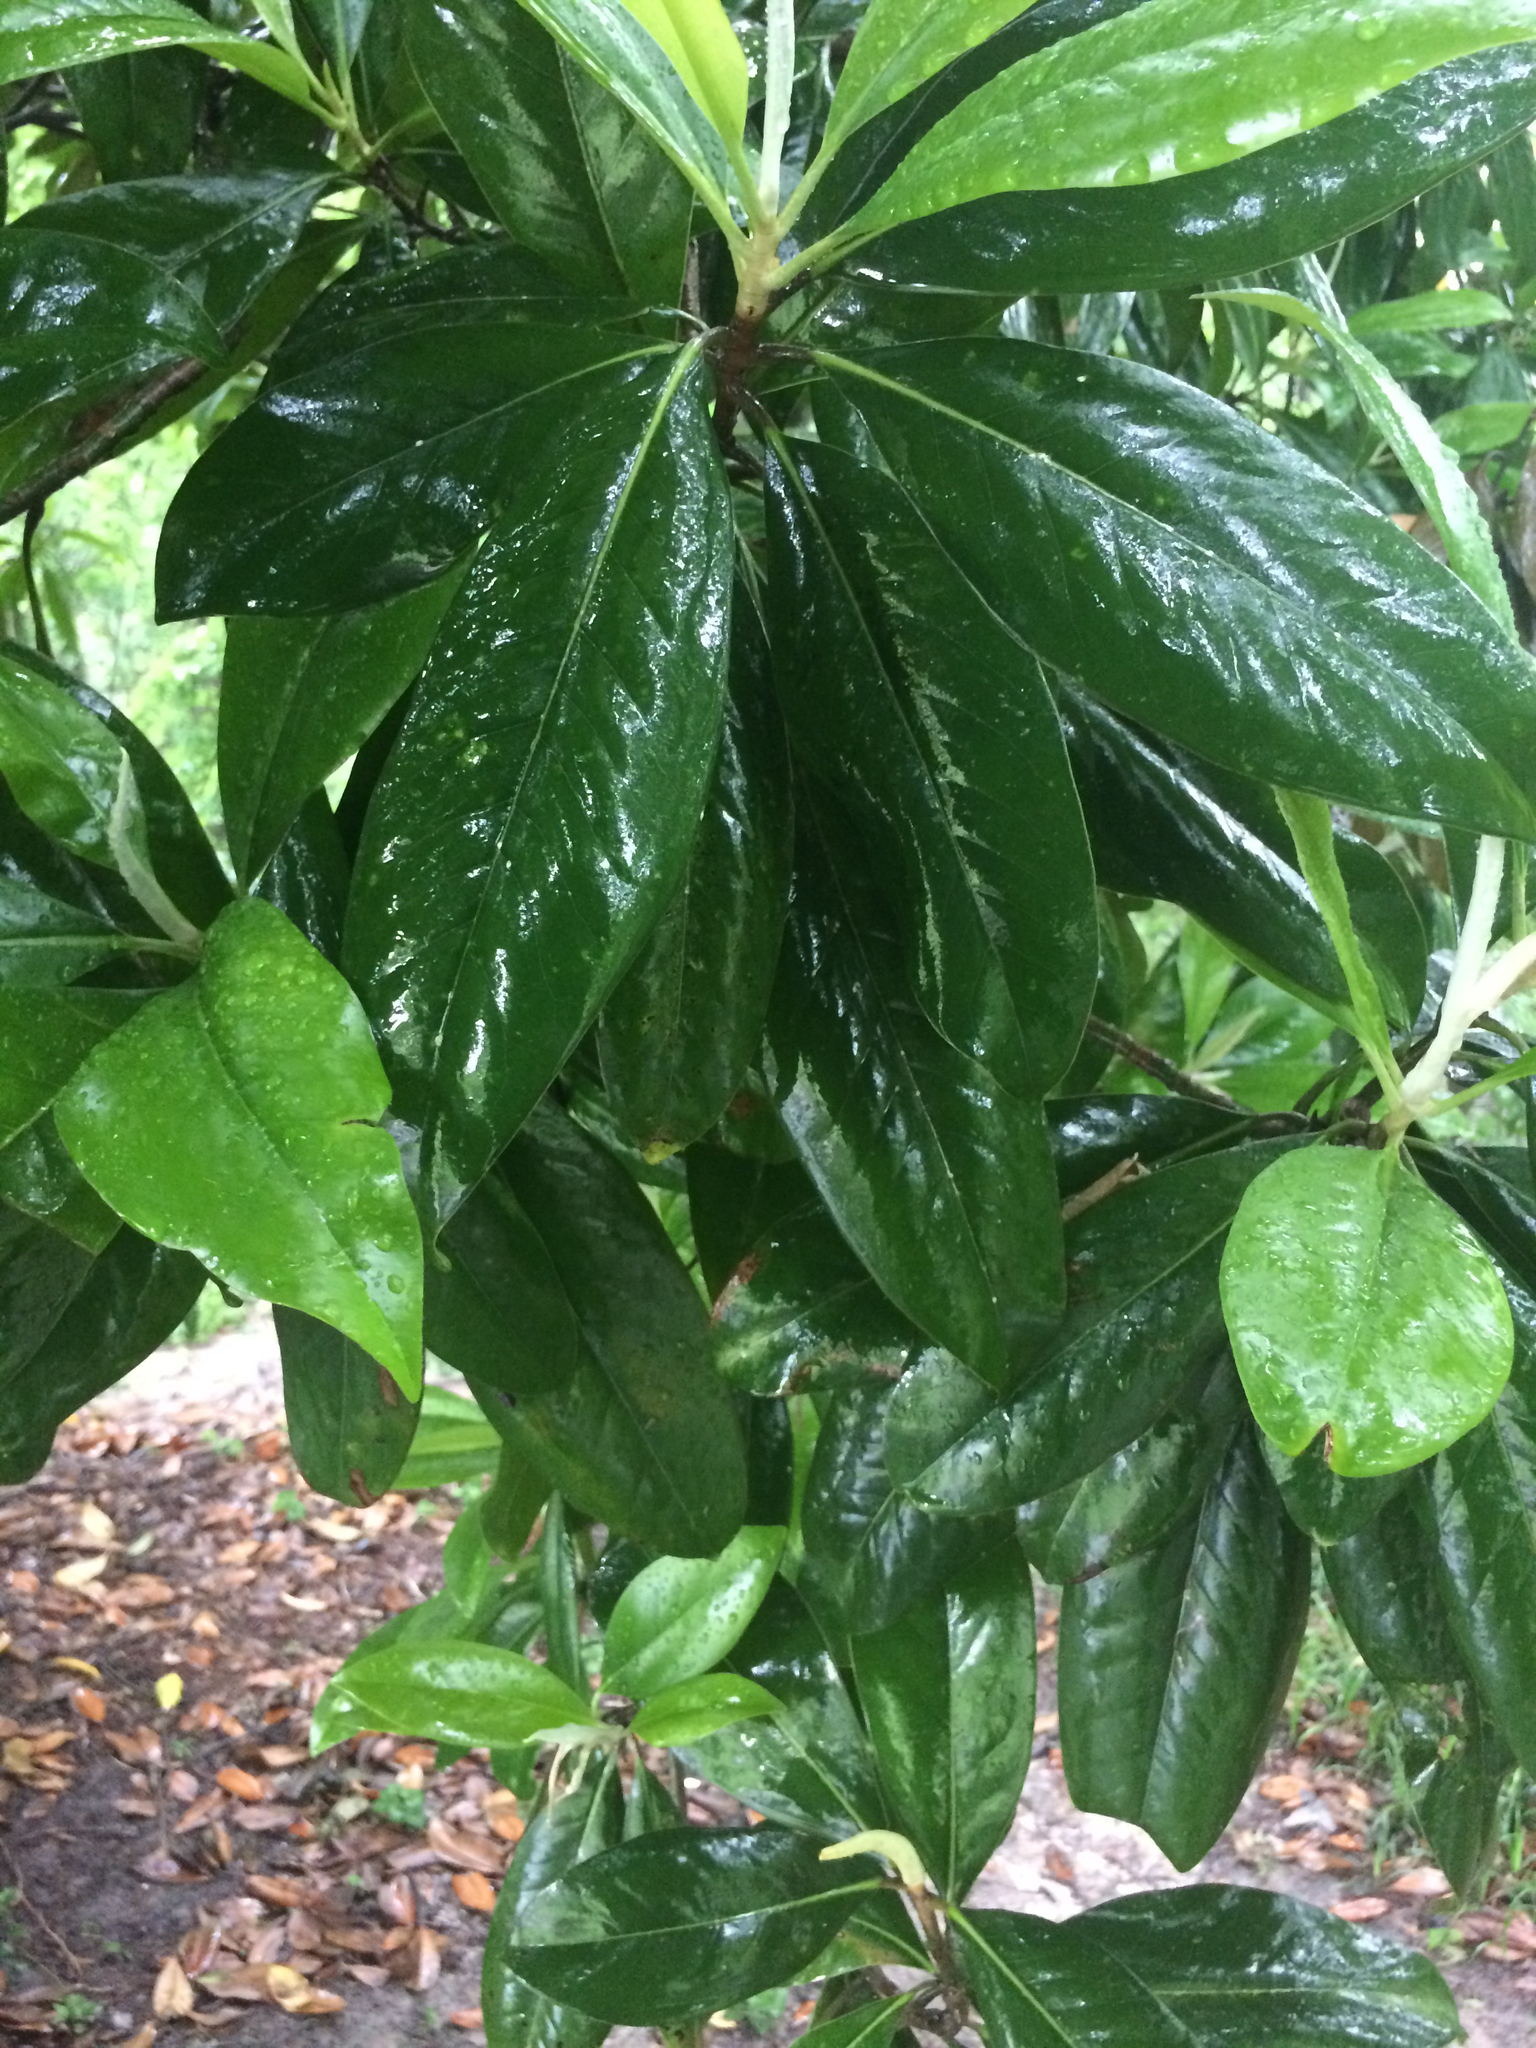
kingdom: Plantae
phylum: Tracheophyta
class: Magnoliopsida
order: Magnoliales
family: Magnoliaceae
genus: Magnolia
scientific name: Magnolia grandiflora
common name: Southern magnolia
